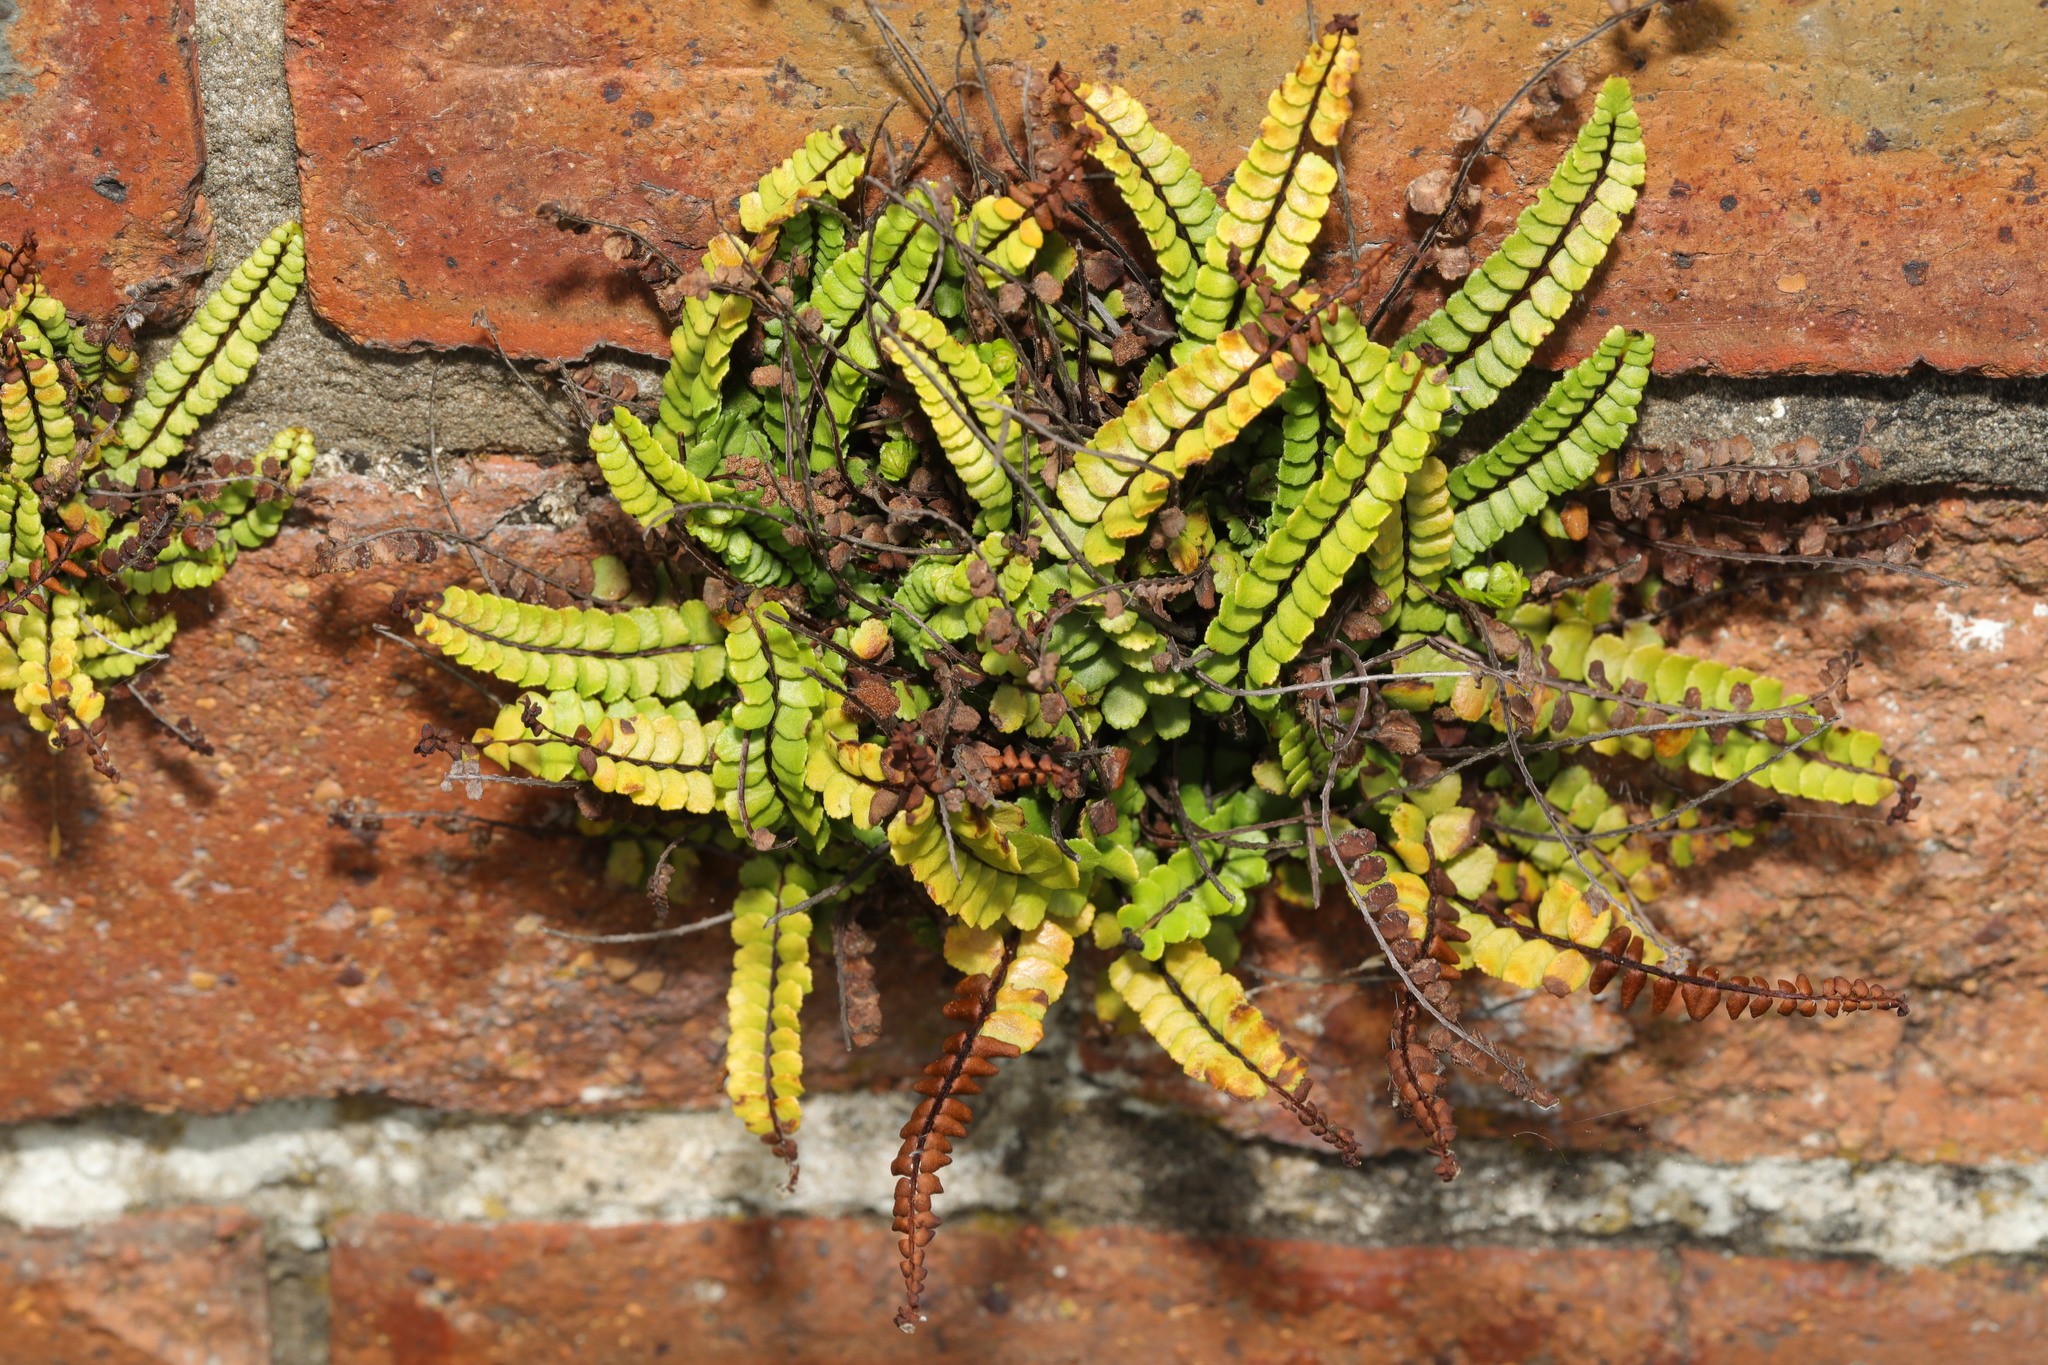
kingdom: Plantae
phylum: Tracheophyta
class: Polypodiopsida
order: Polypodiales
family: Aspleniaceae
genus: Asplenium
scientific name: Asplenium trichomanes
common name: Maidenhair spleenwort
